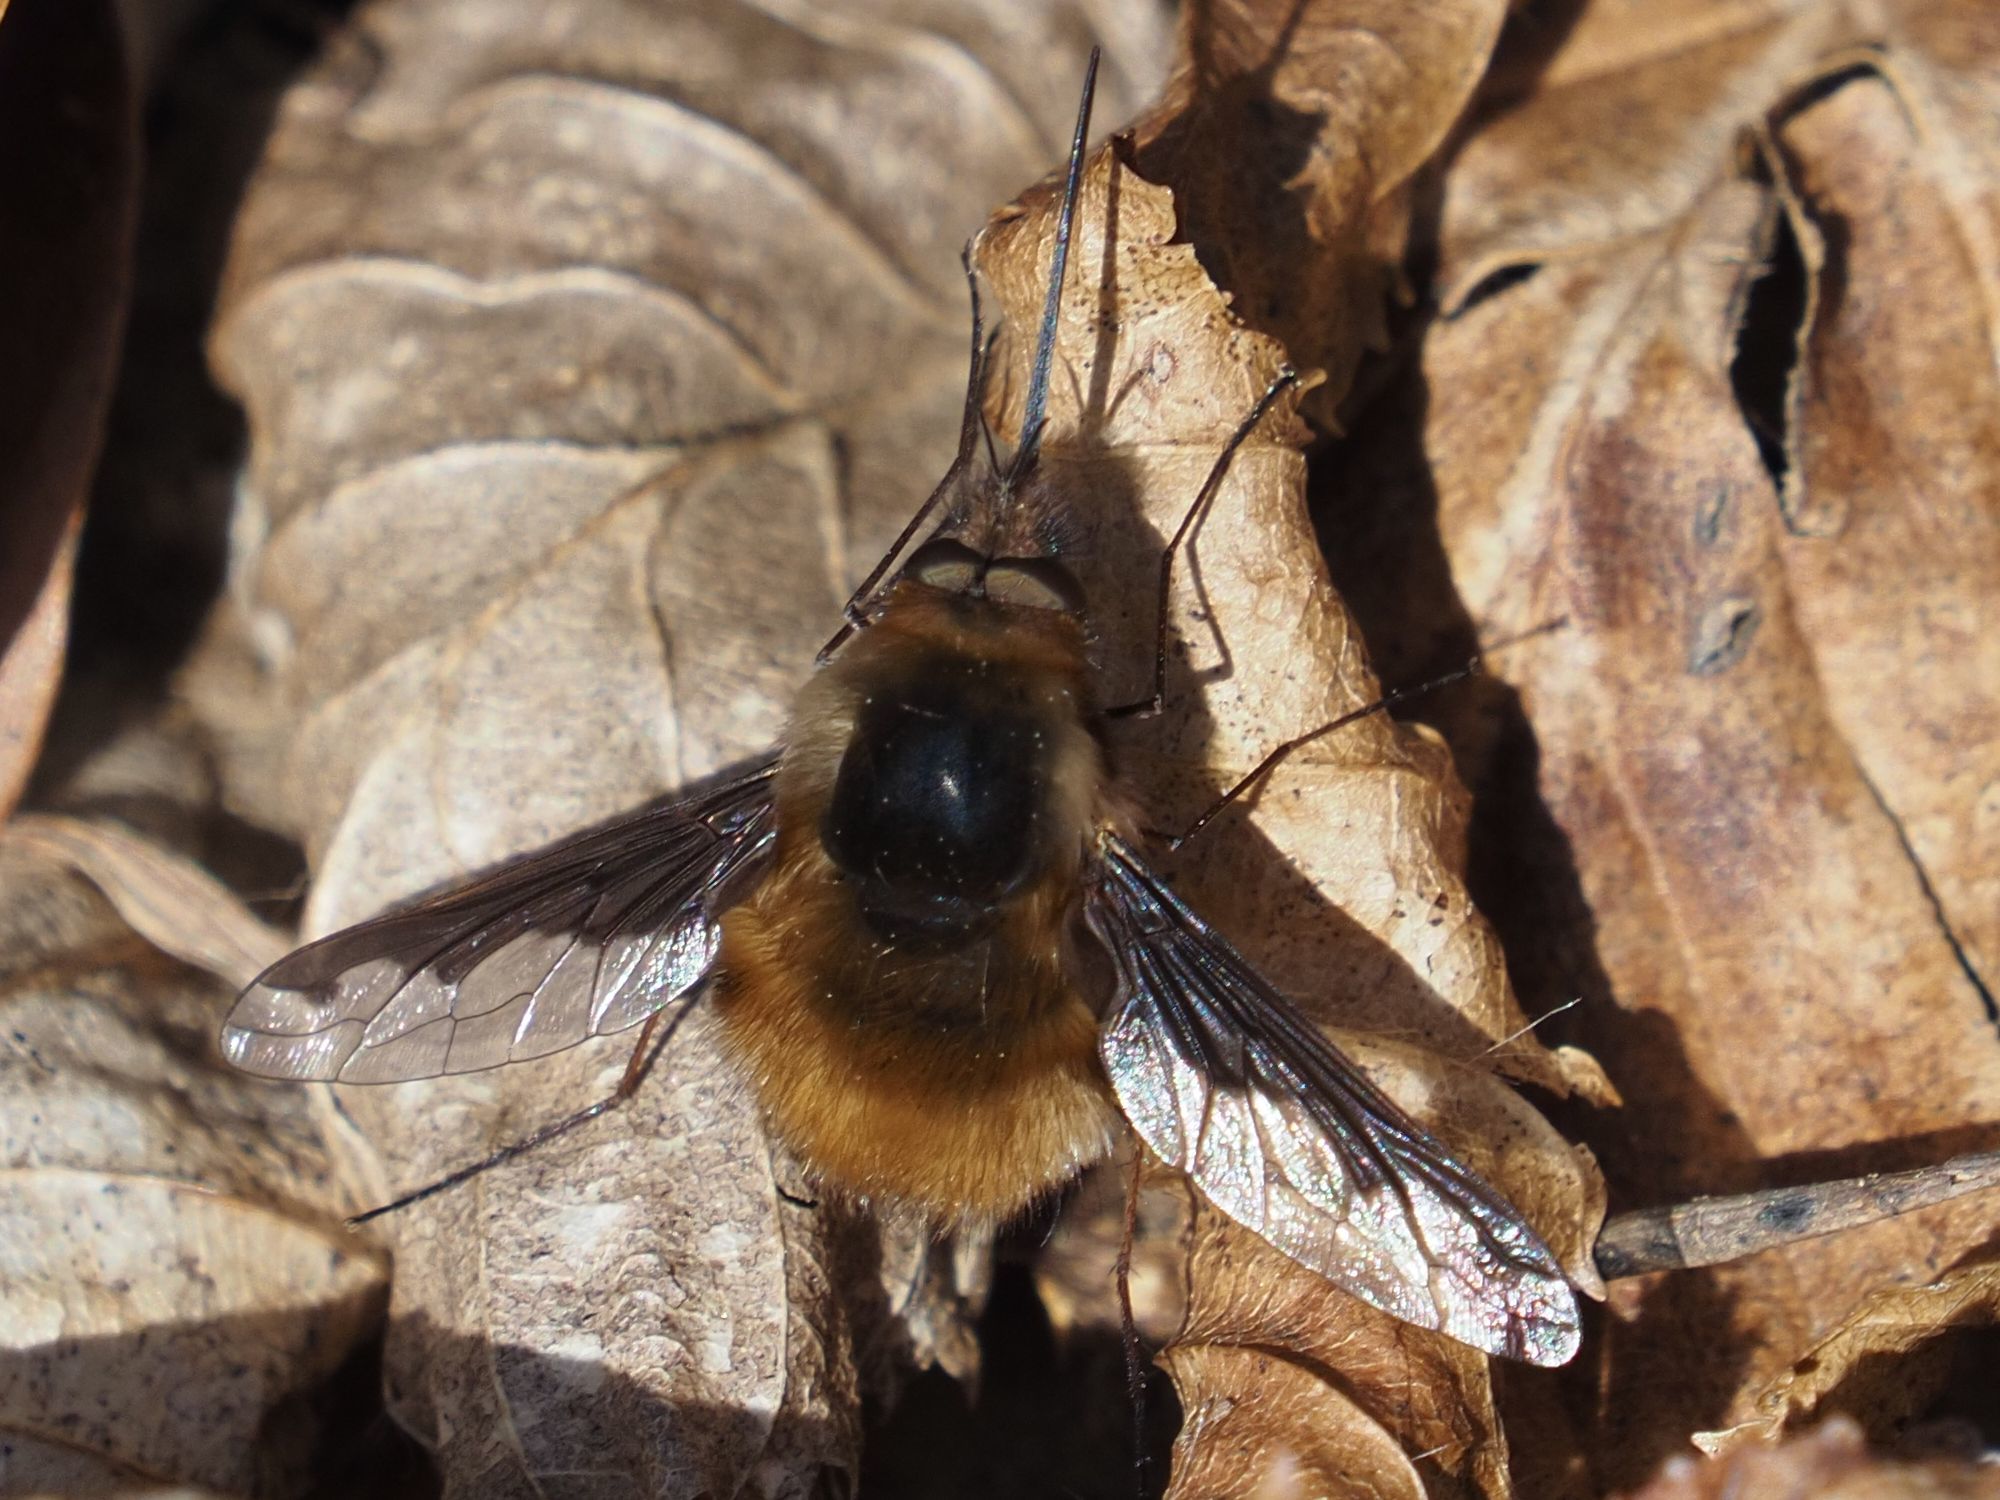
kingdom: Animalia
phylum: Arthropoda
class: Insecta
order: Diptera
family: Bombyliidae
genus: Bombylius
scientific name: Bombylius major
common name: Bee fly
